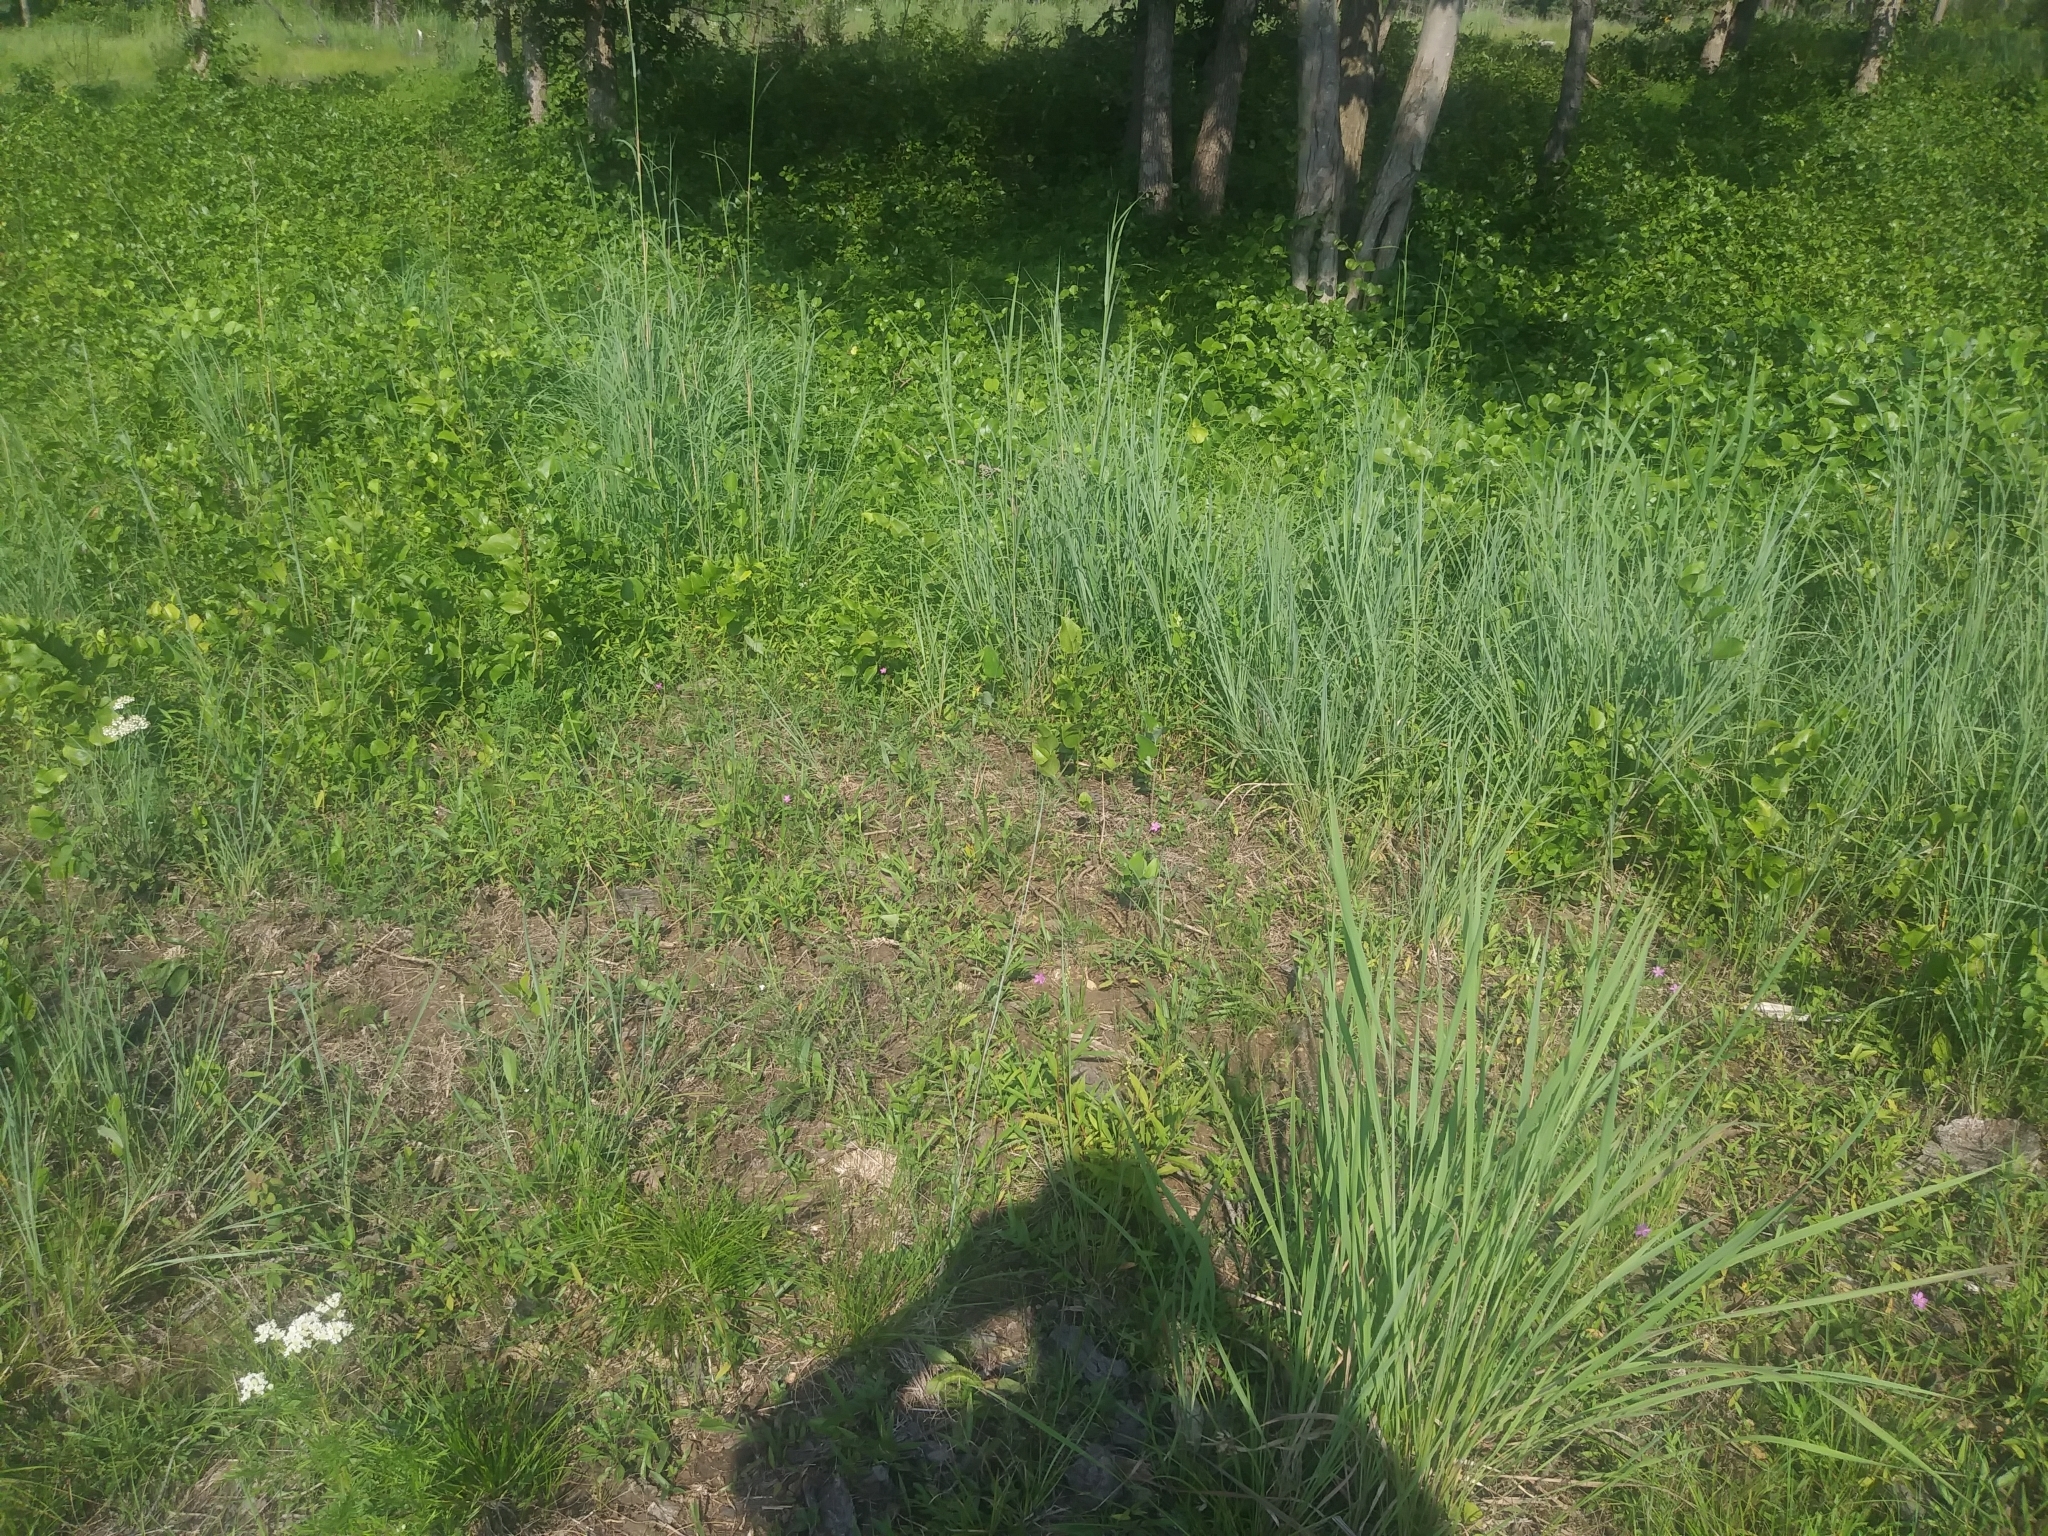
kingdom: Plantae
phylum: Tracheophyta
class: Magnoliopsida
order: Caryophyllales
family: Montiaceae
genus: Phemeranthus
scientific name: Phemeranthus teretifolius
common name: Quill fameflower
